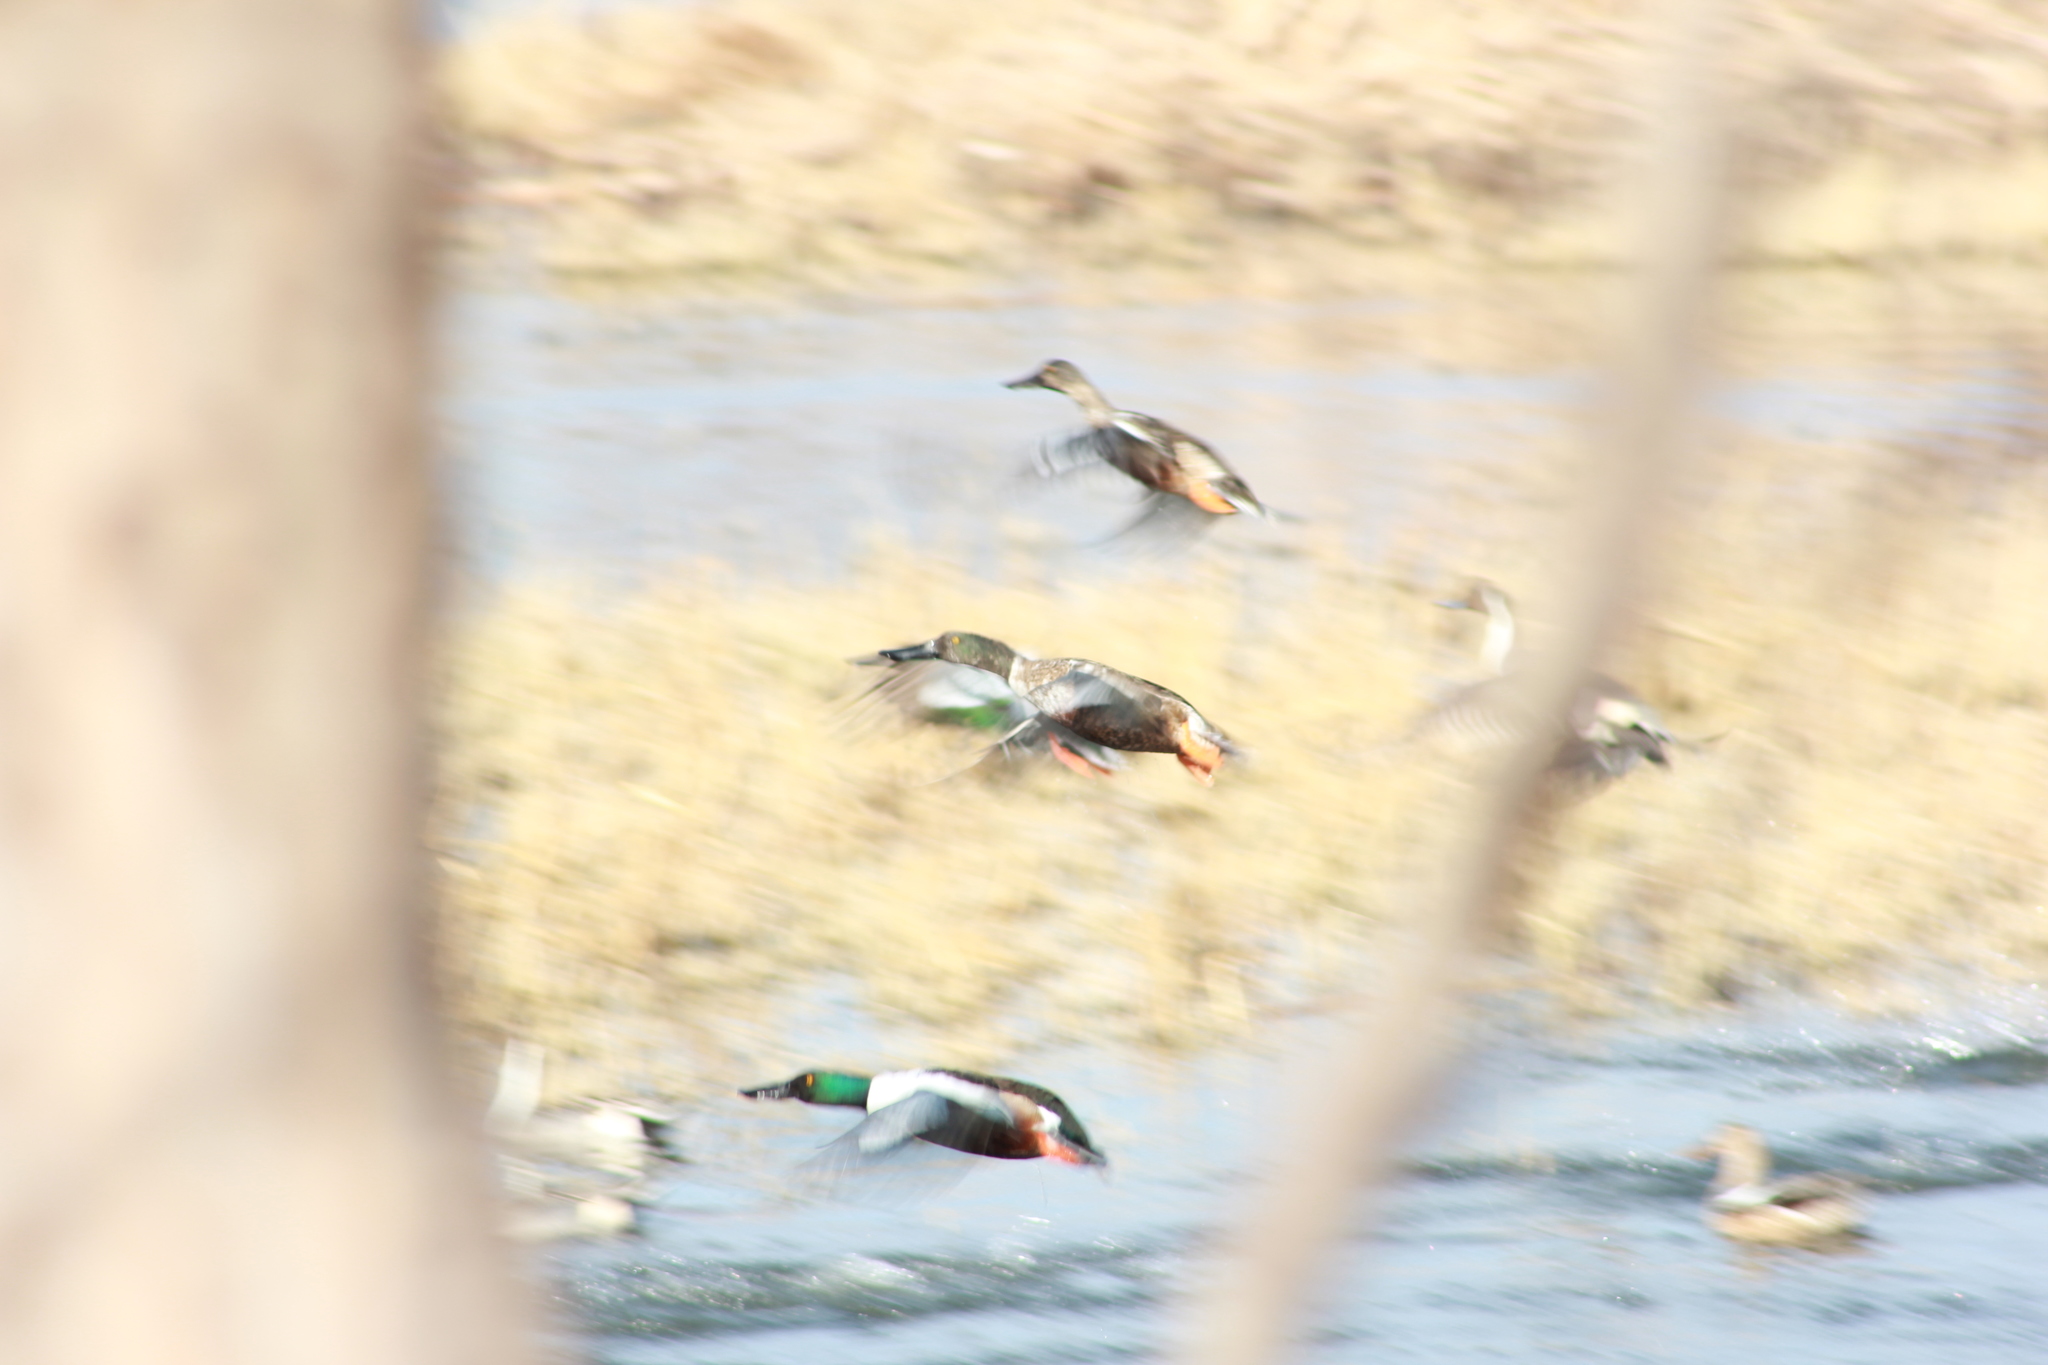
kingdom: Animalia
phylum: Chordata
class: Aves
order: Anseriformes
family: Anatidae
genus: Spatula
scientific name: Spatula clypeata
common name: Northern shoveler
